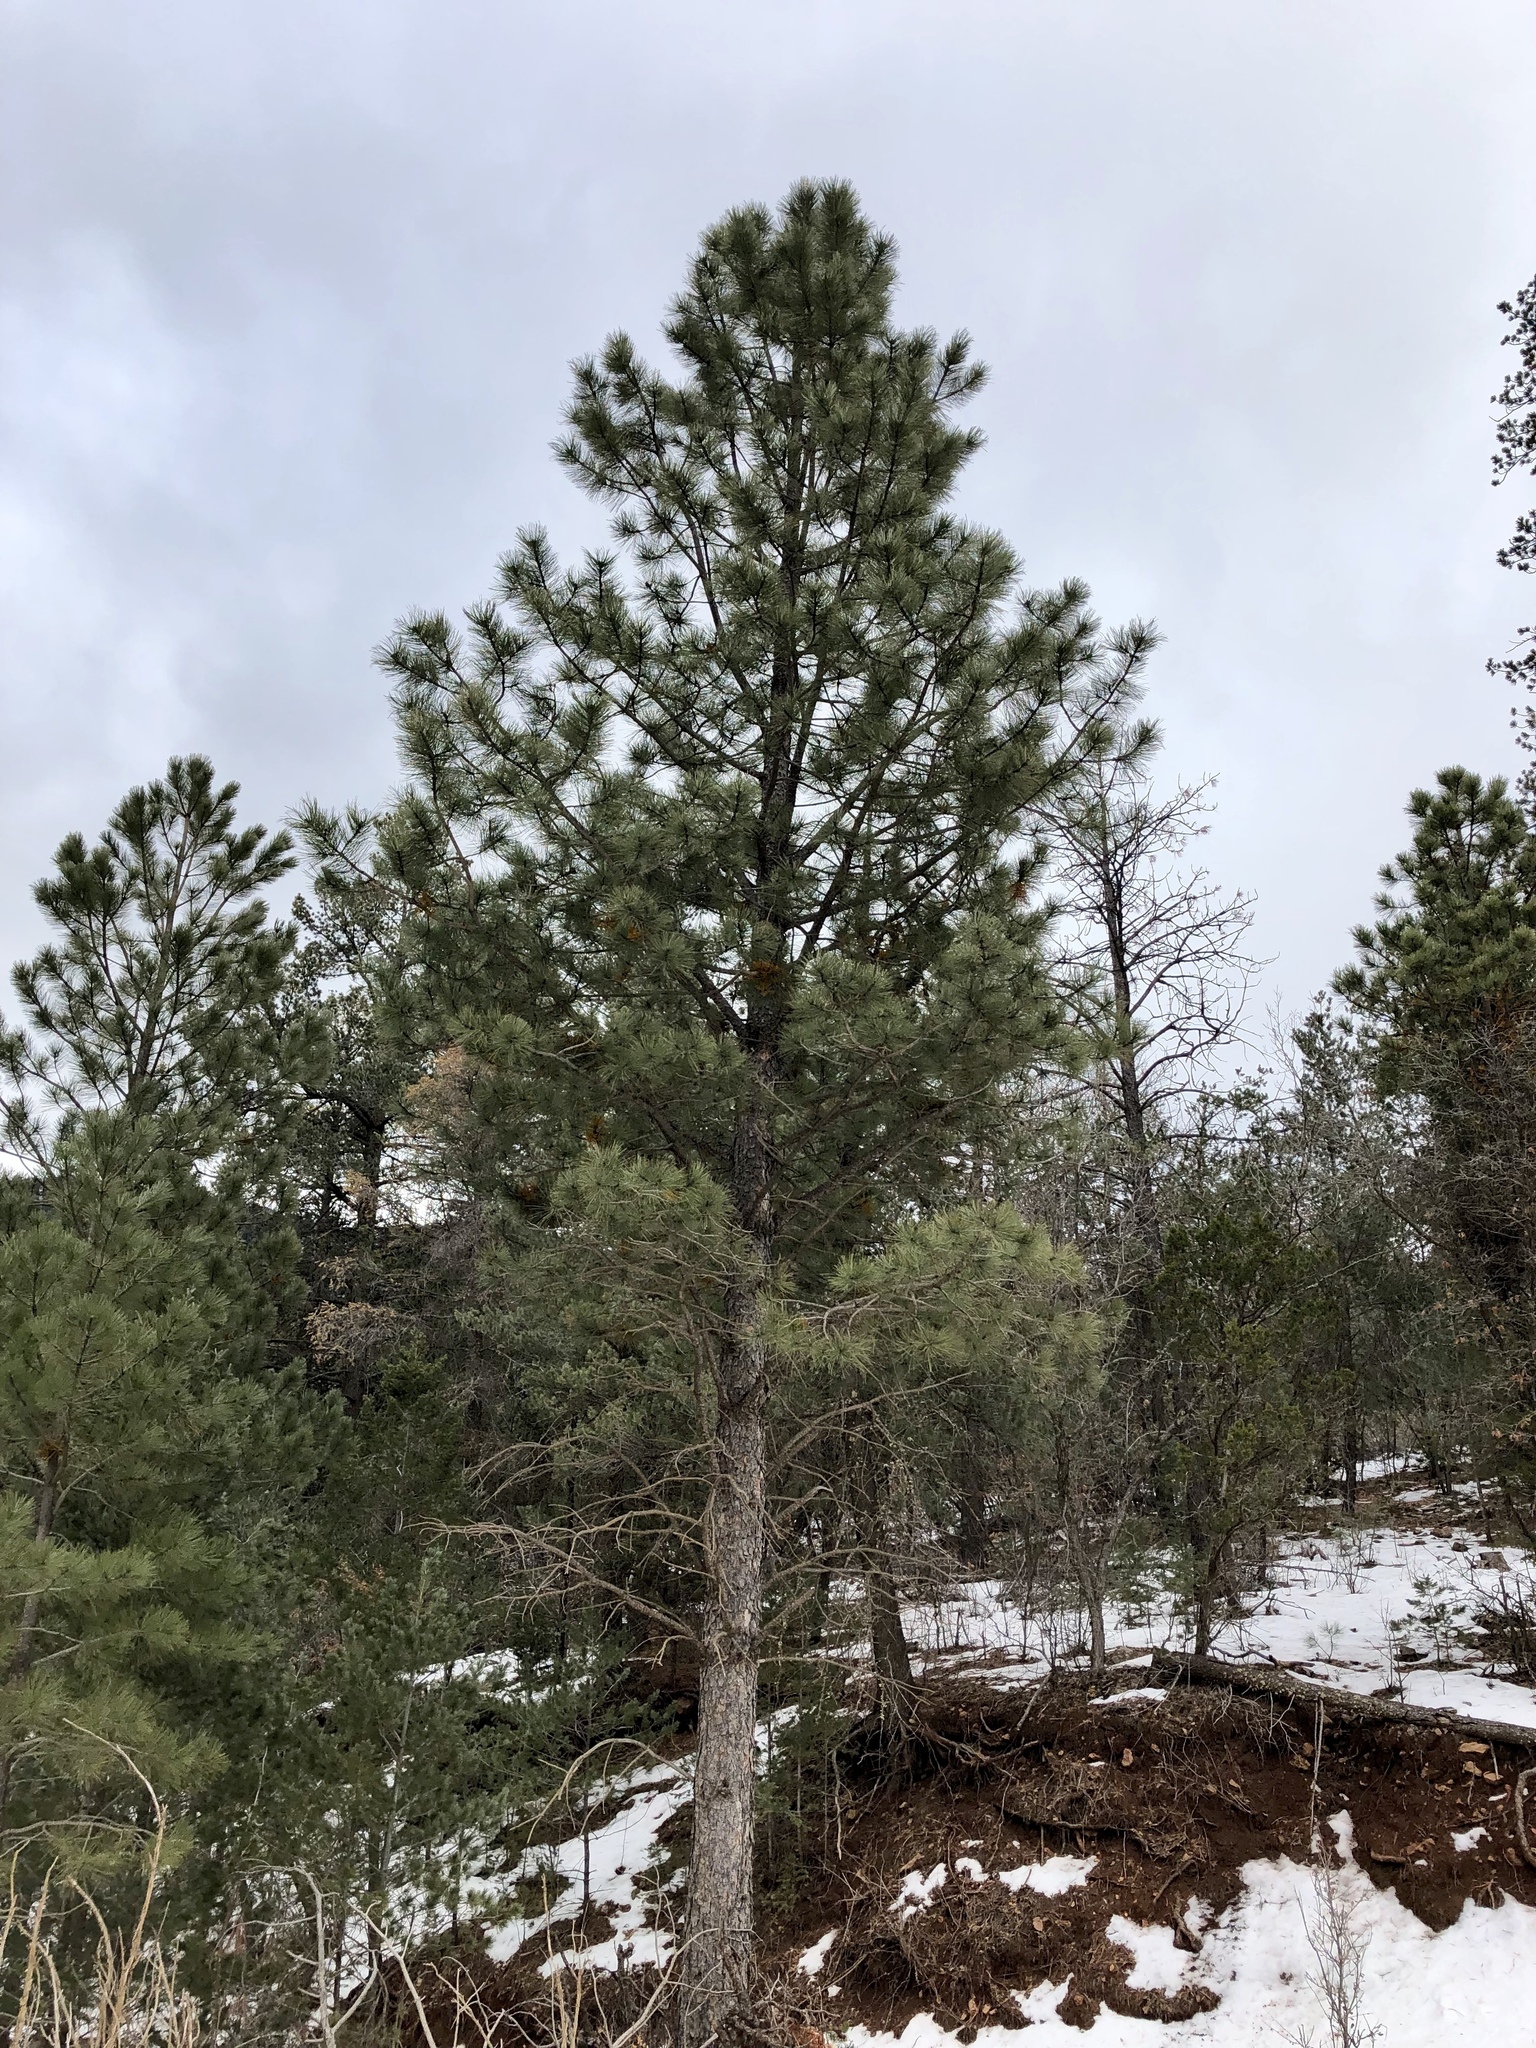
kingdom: Plantae
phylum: Tracheophyta
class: Pinopsida
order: Pinales
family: Pinaceae
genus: Pinus
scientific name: Pinus ponderosa
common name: Western yellow-pine
